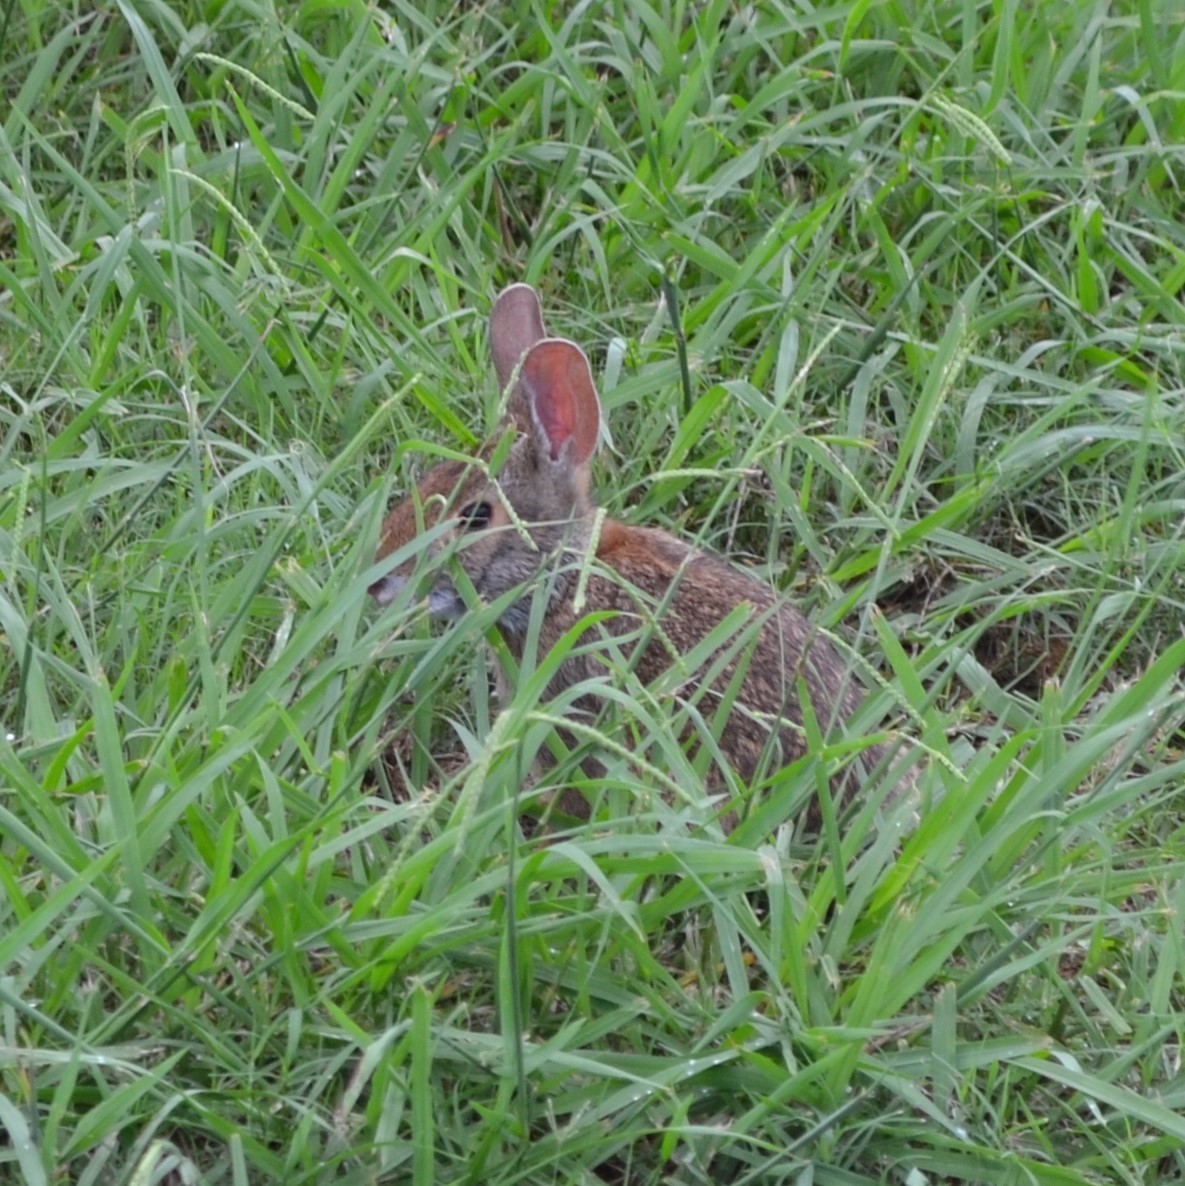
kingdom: Animalia
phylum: Chordata
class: Mammalia
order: Lagomorpha
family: Leporidae
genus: Sylvilagus
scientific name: Sylvilagus aquaticus
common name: Swamp rabbit
